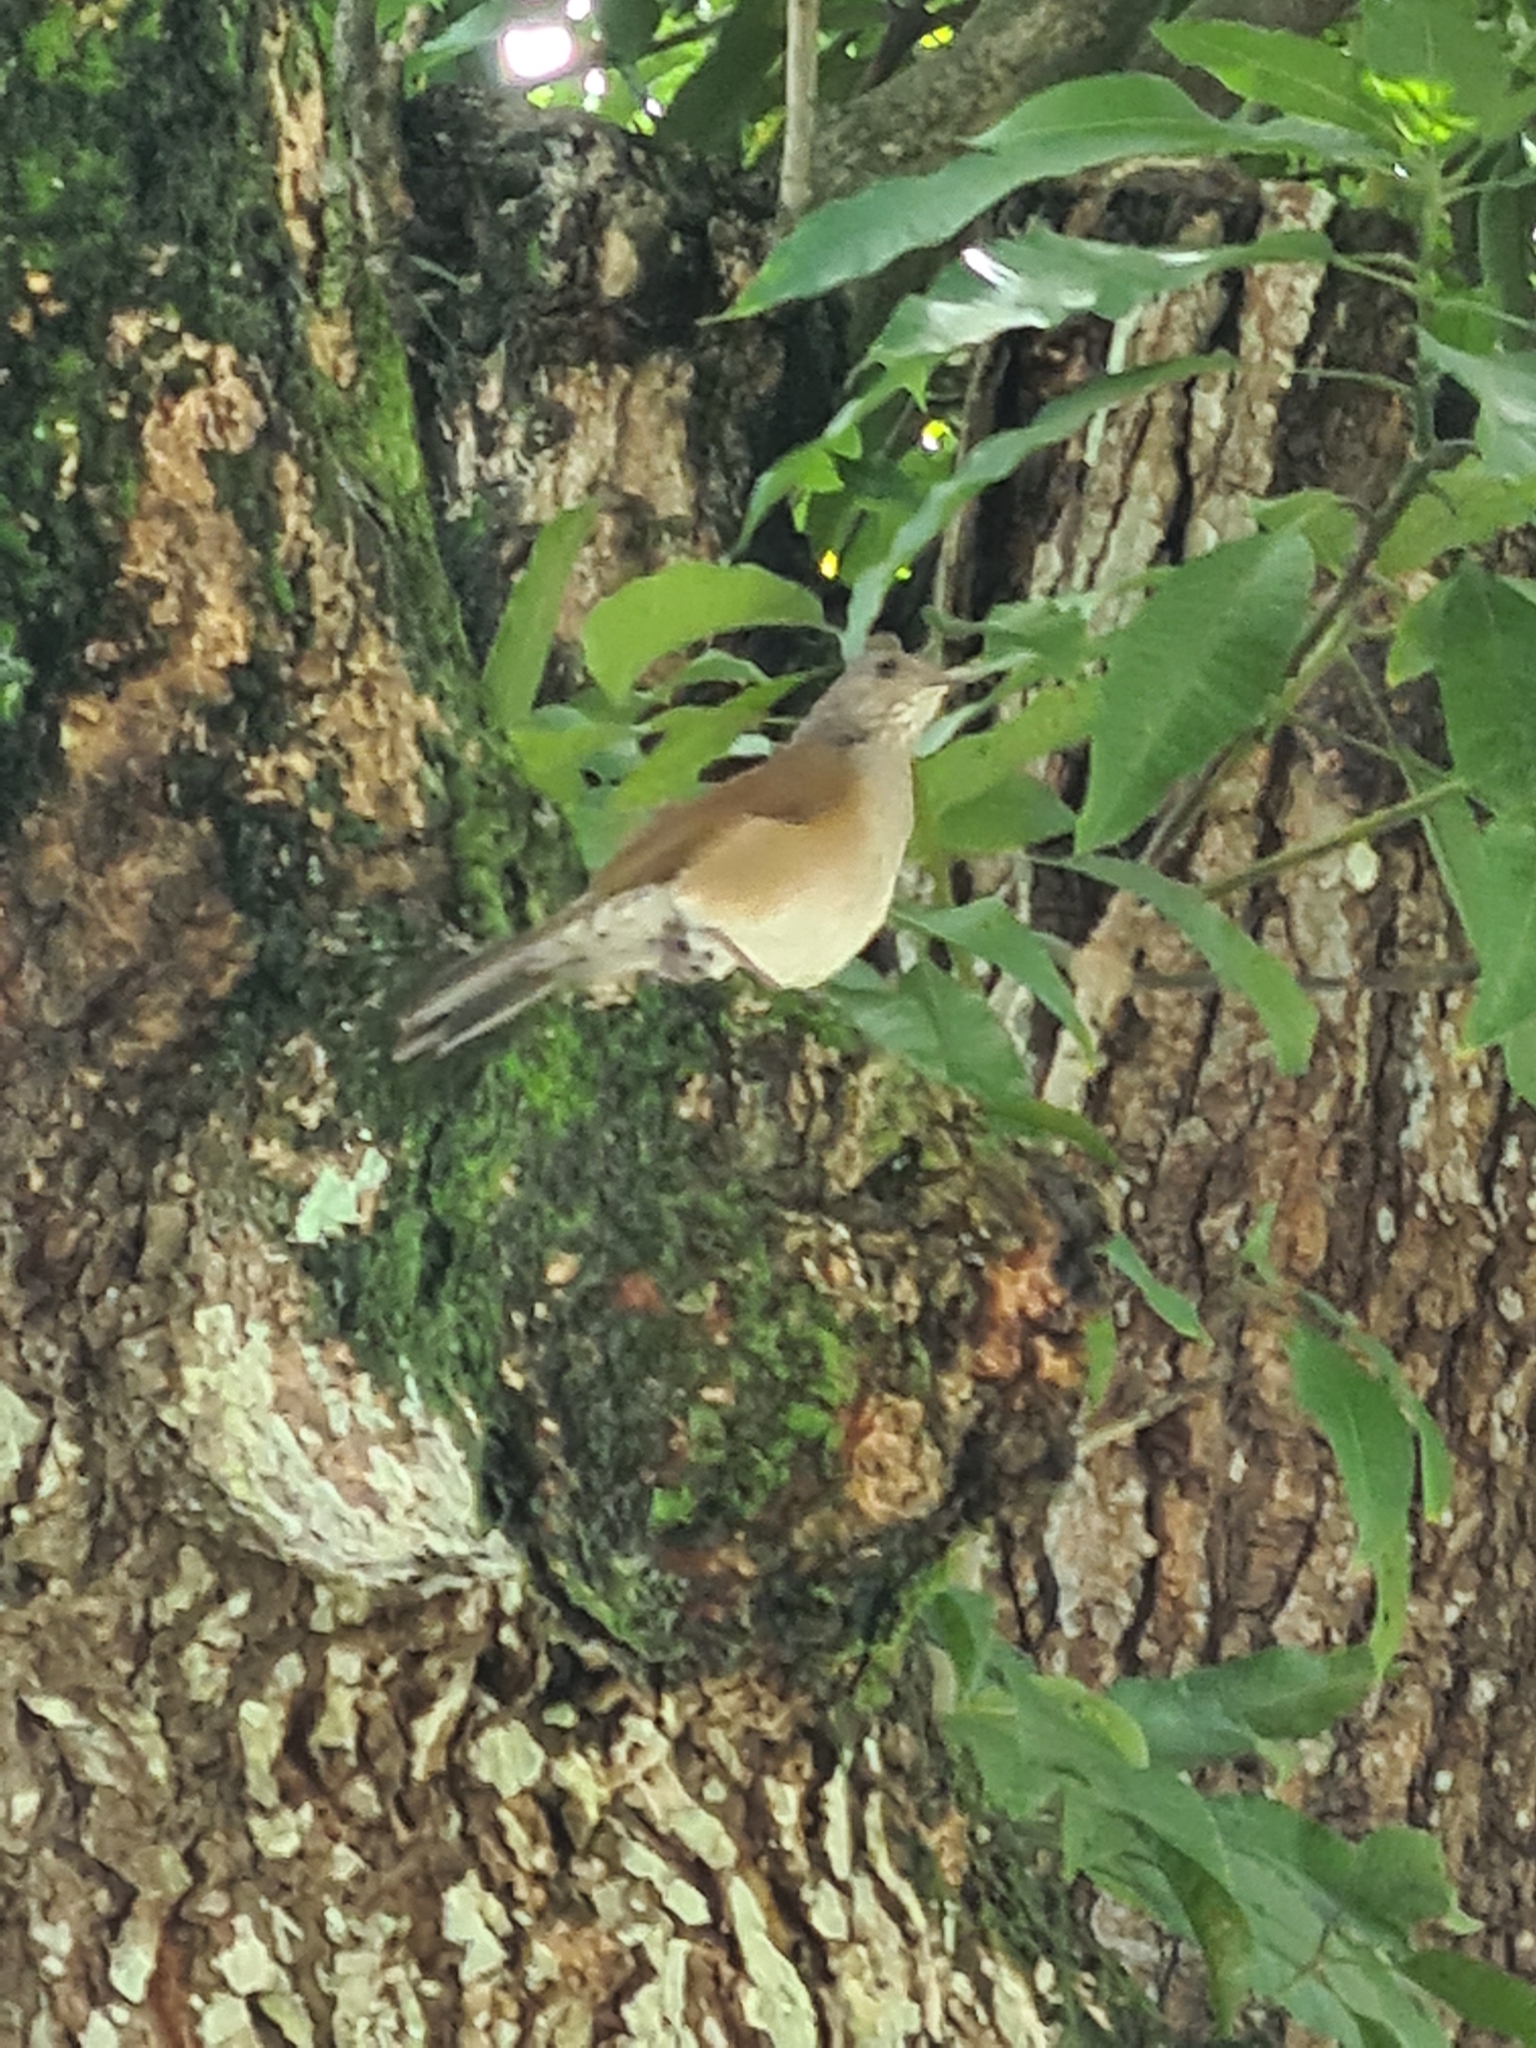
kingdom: Animalia
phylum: Chordata
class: Aves
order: Passeriformes
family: Turdidae
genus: Turdus
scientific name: Turdus leucomelas
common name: Pale-breasted thrush
